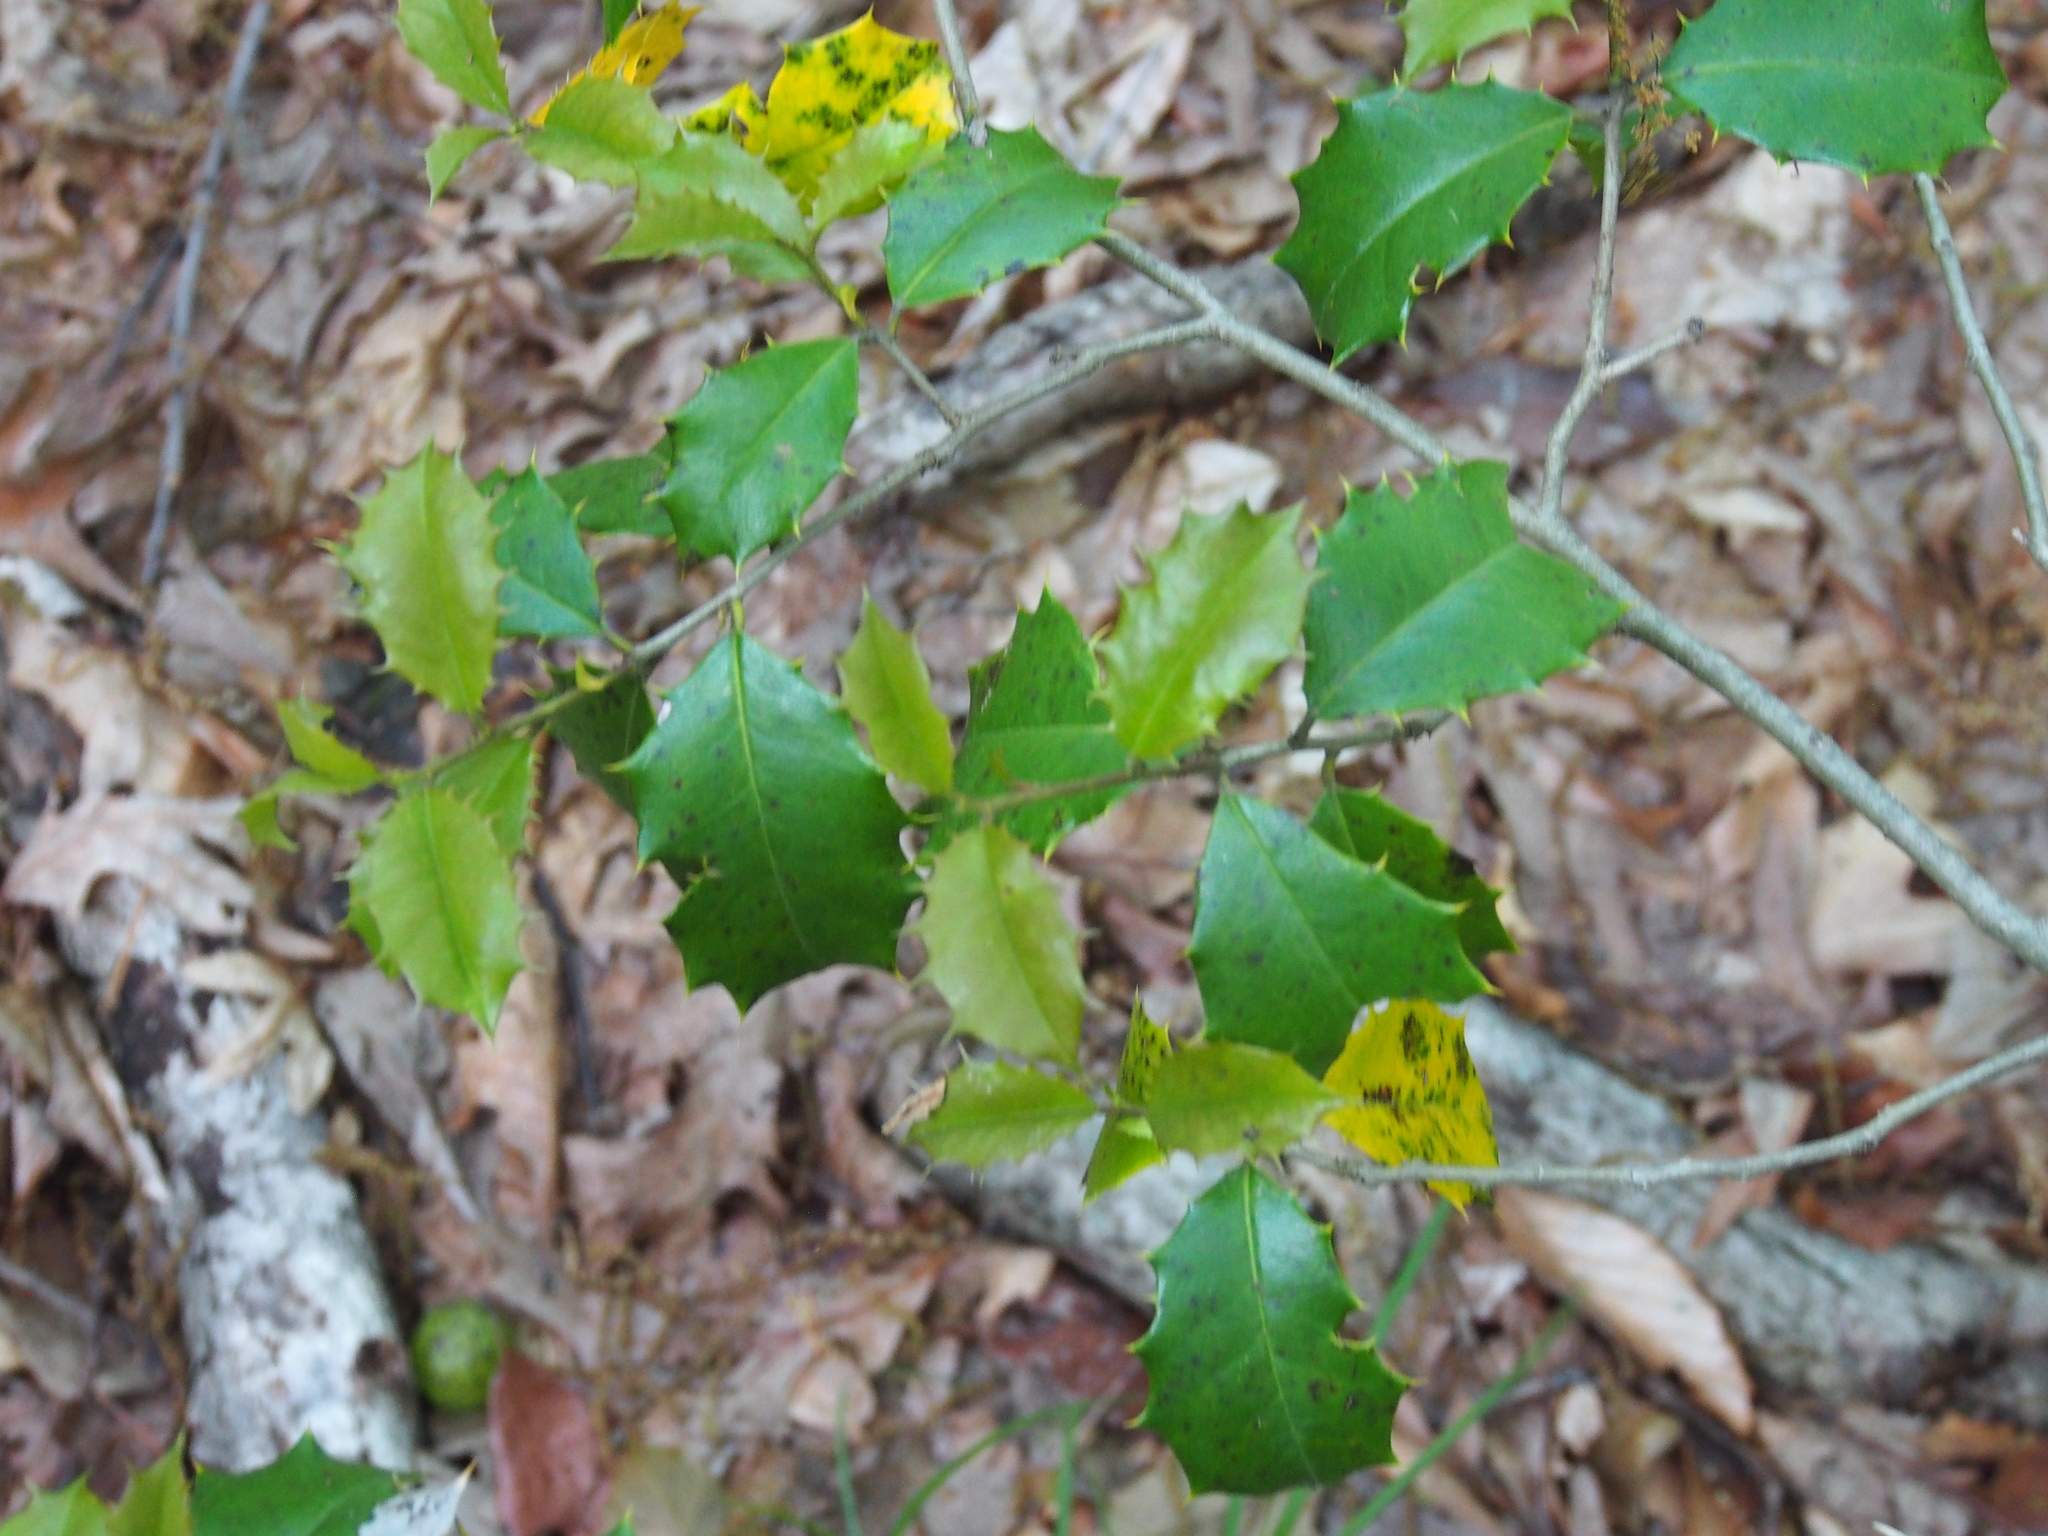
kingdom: Plantae
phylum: Tracheophyta
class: Magnoliopsida
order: Aquifoliales
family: Aquifoliaceae
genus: Ilex
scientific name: Ilex opaca
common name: American holly
